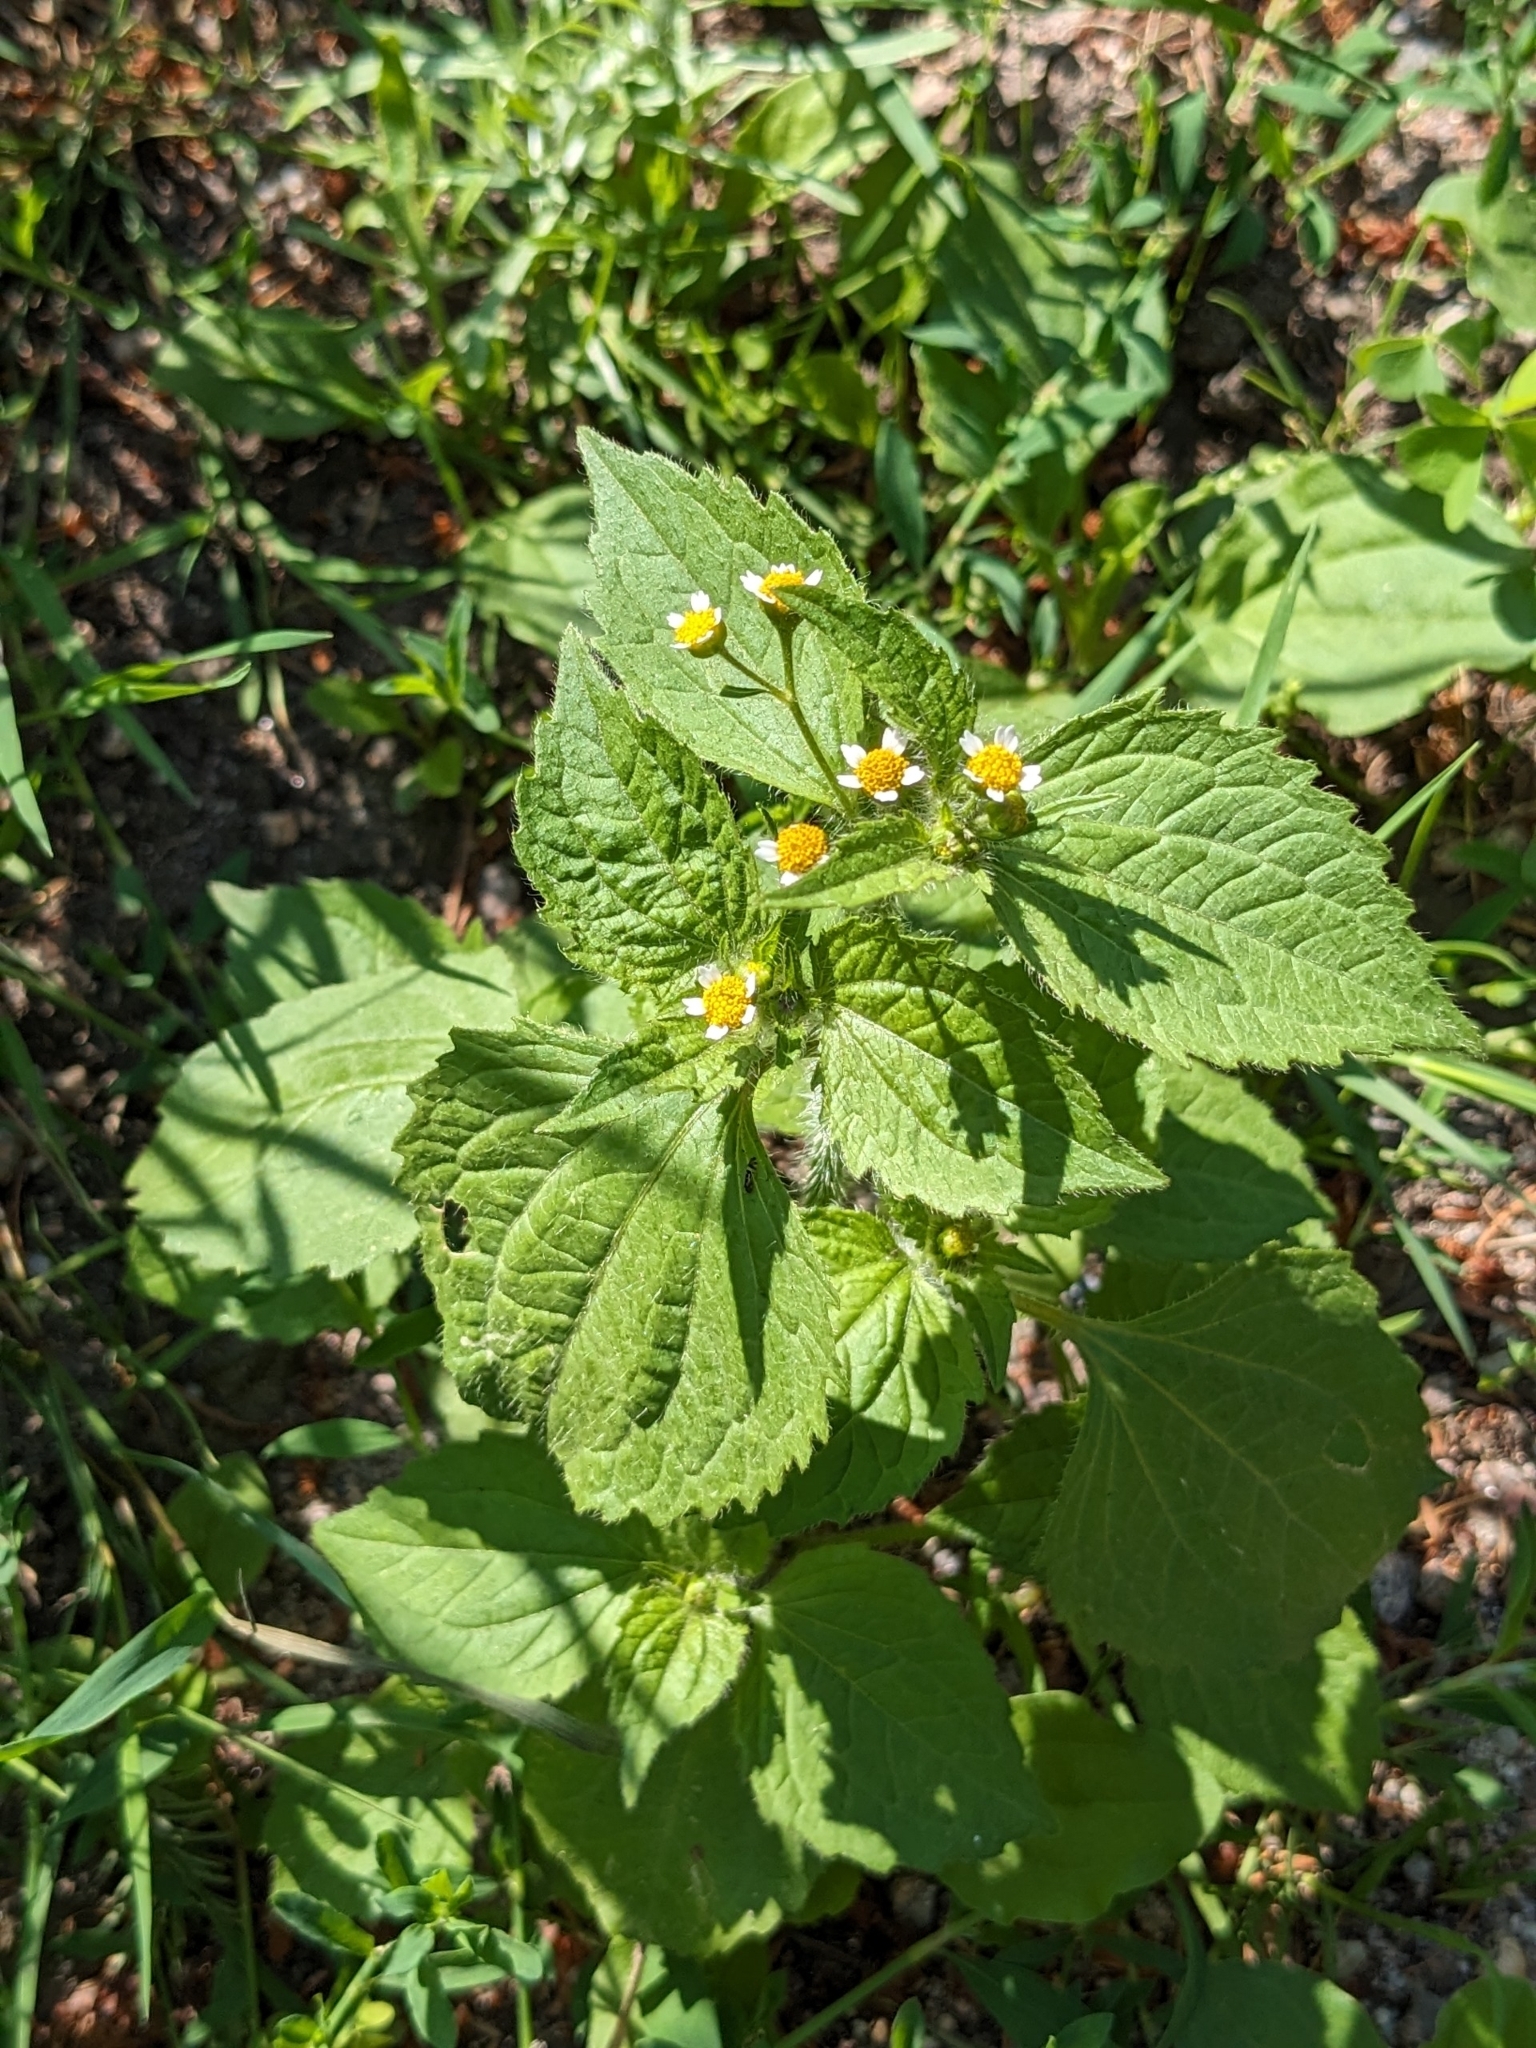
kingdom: Plantae
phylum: Tracheophyta
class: Magnoliopsida
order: Asterales
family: Asteraceae
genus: Galinsoga
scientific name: Galinsoga quadriradiata
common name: Shaggy soldier
